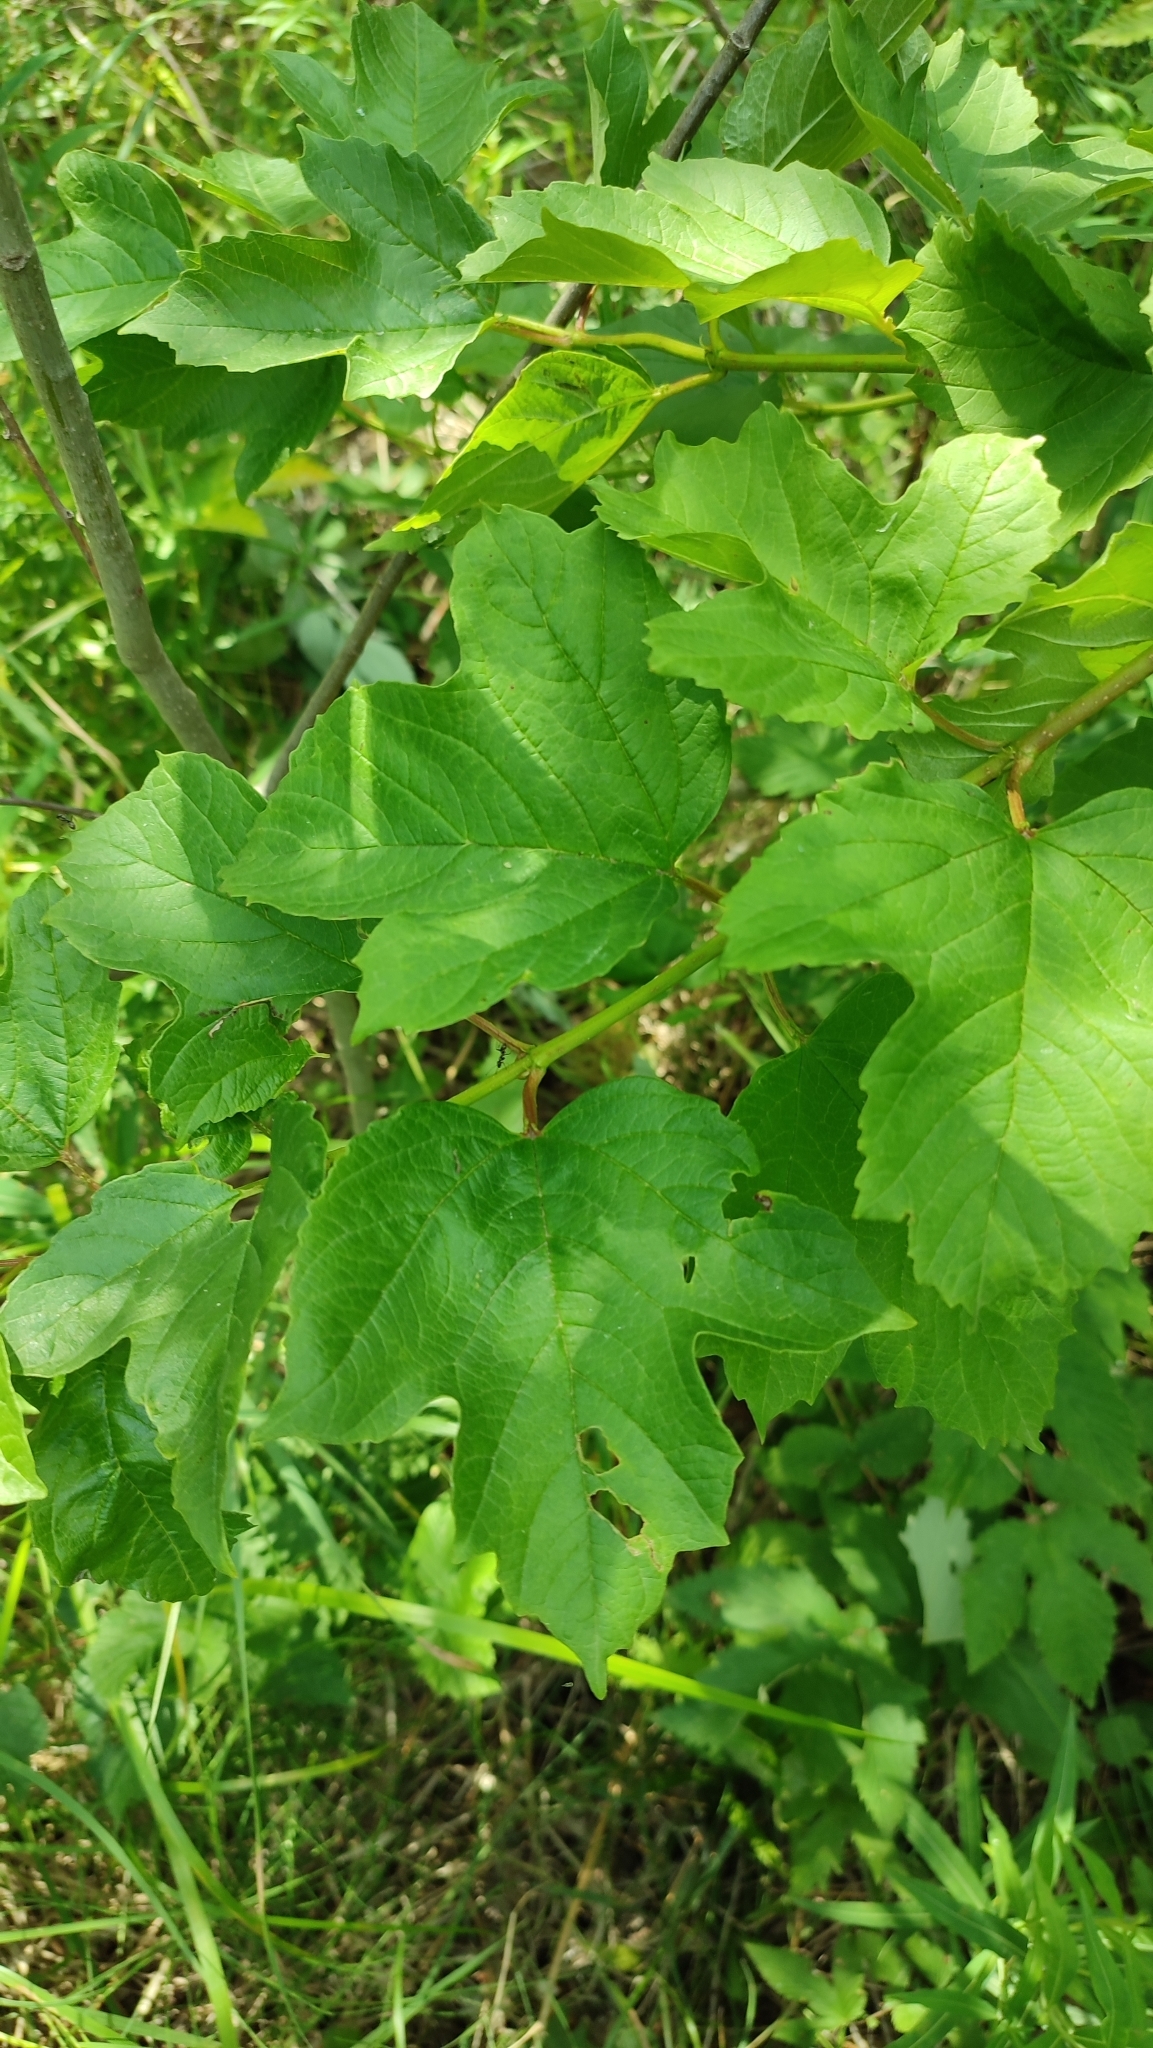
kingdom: Plantae
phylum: Tracheophyta
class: Magnoliopsida
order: Dipsacales
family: Viburnaceae
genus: Viburnum
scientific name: Viburnum opulus
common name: Guelder-rose
